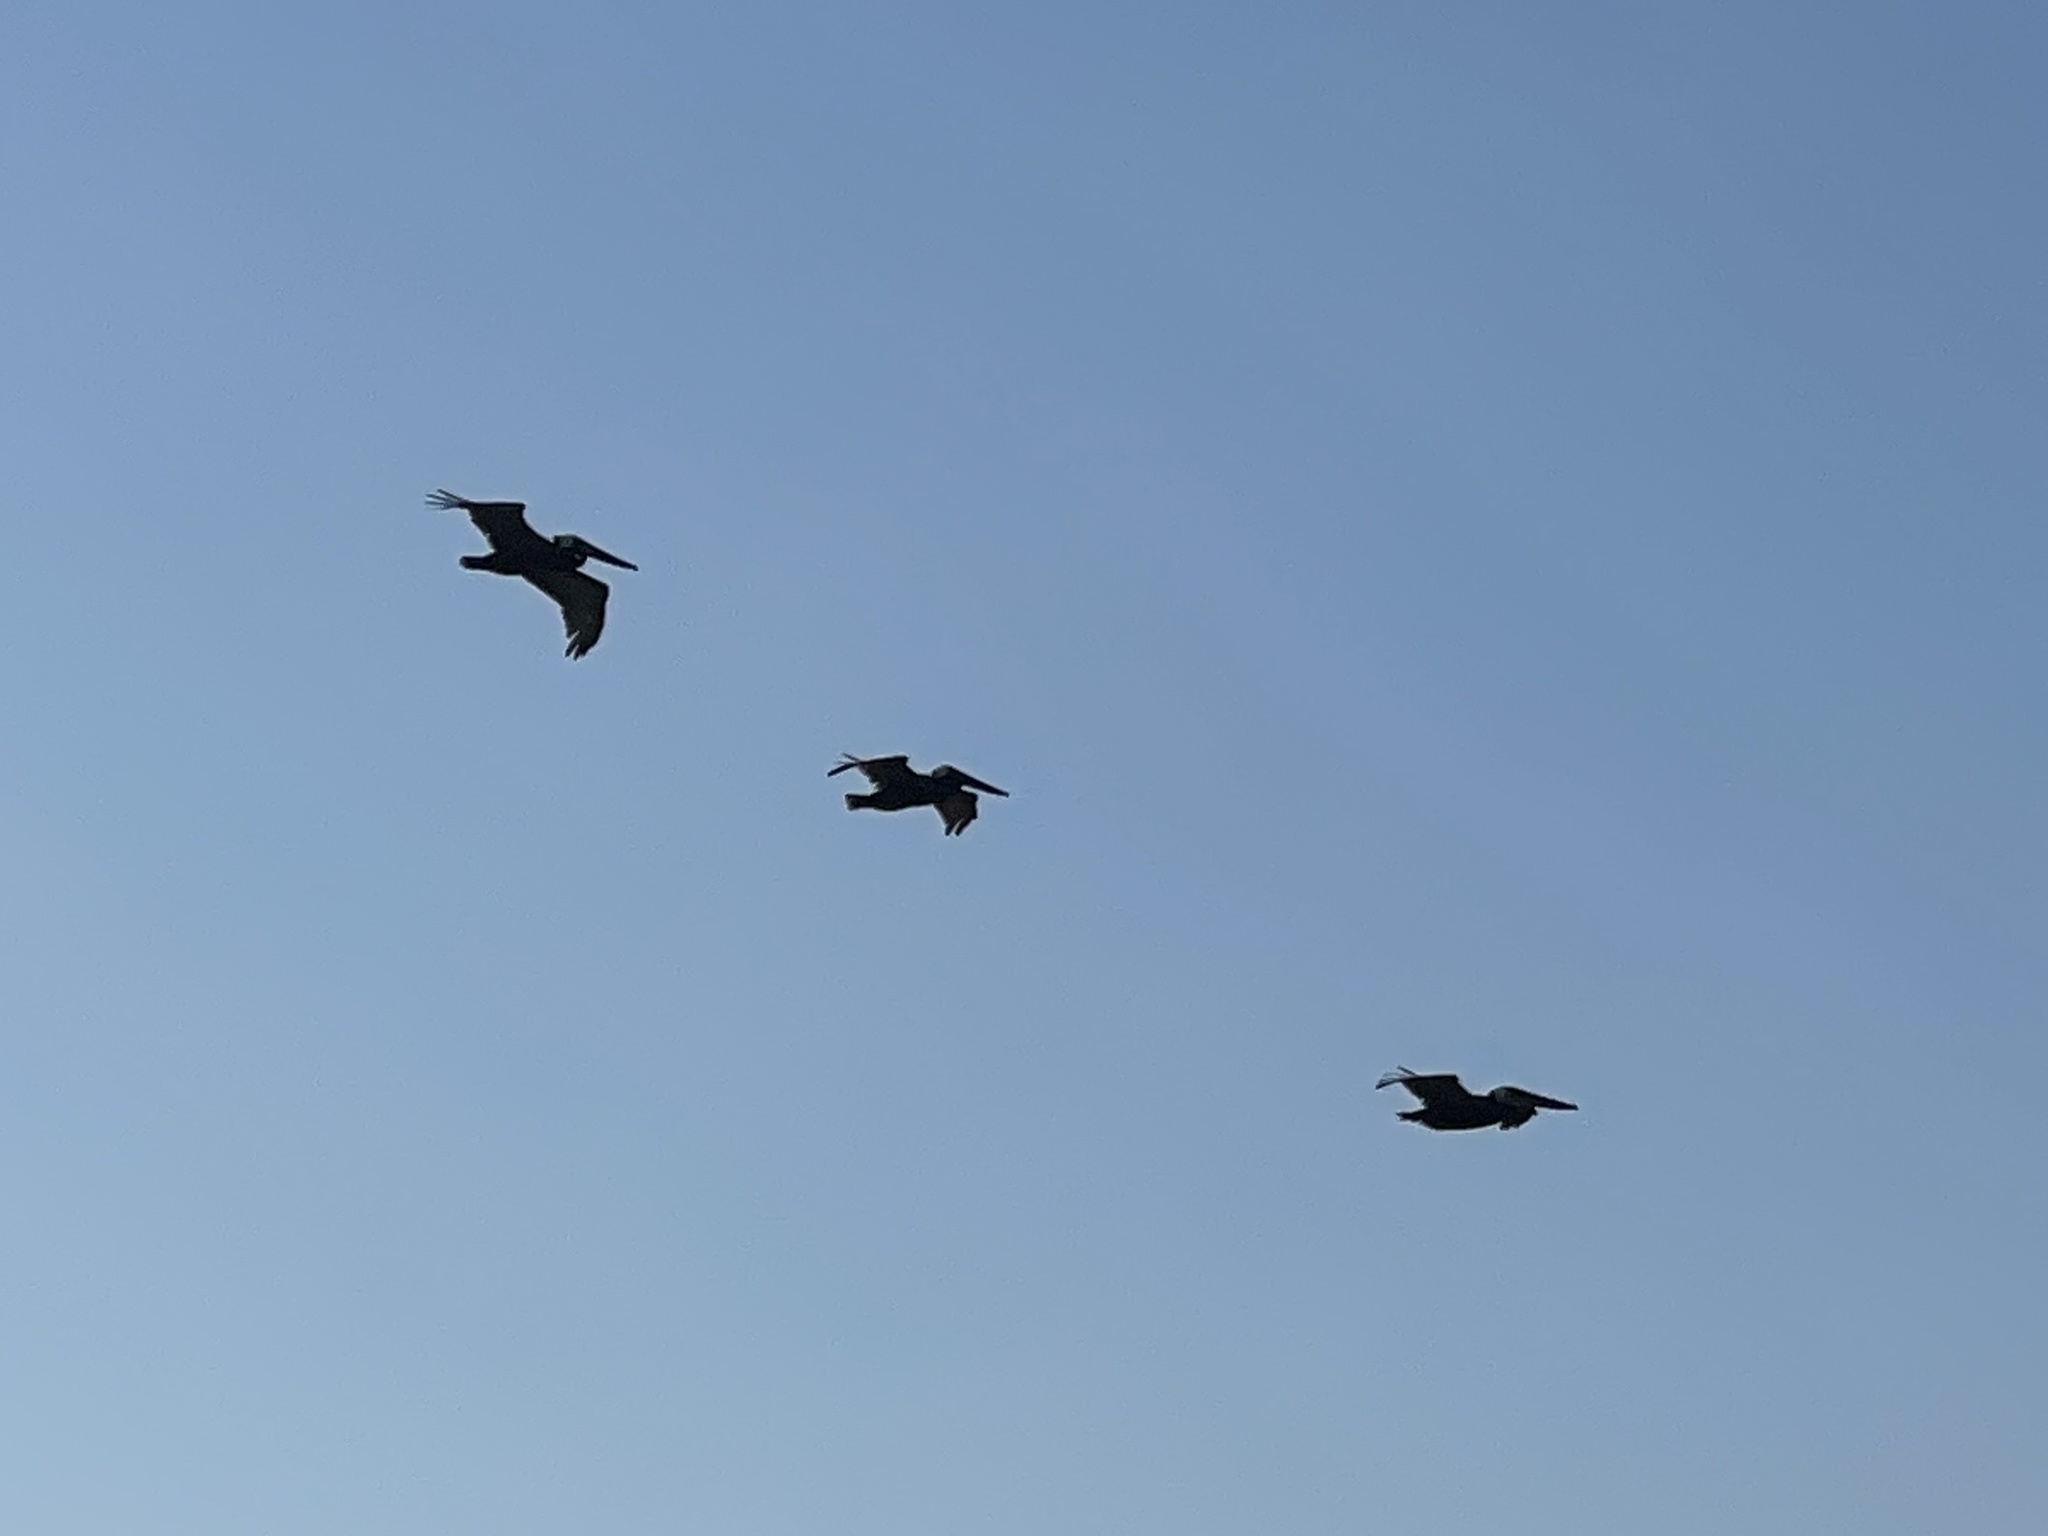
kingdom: Animalia
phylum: Chordata
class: Aves
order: Pelecaniformes
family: Pelecanidae
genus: Pelecanus
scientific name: Pelecanus occidentalis
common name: Brown pelican
